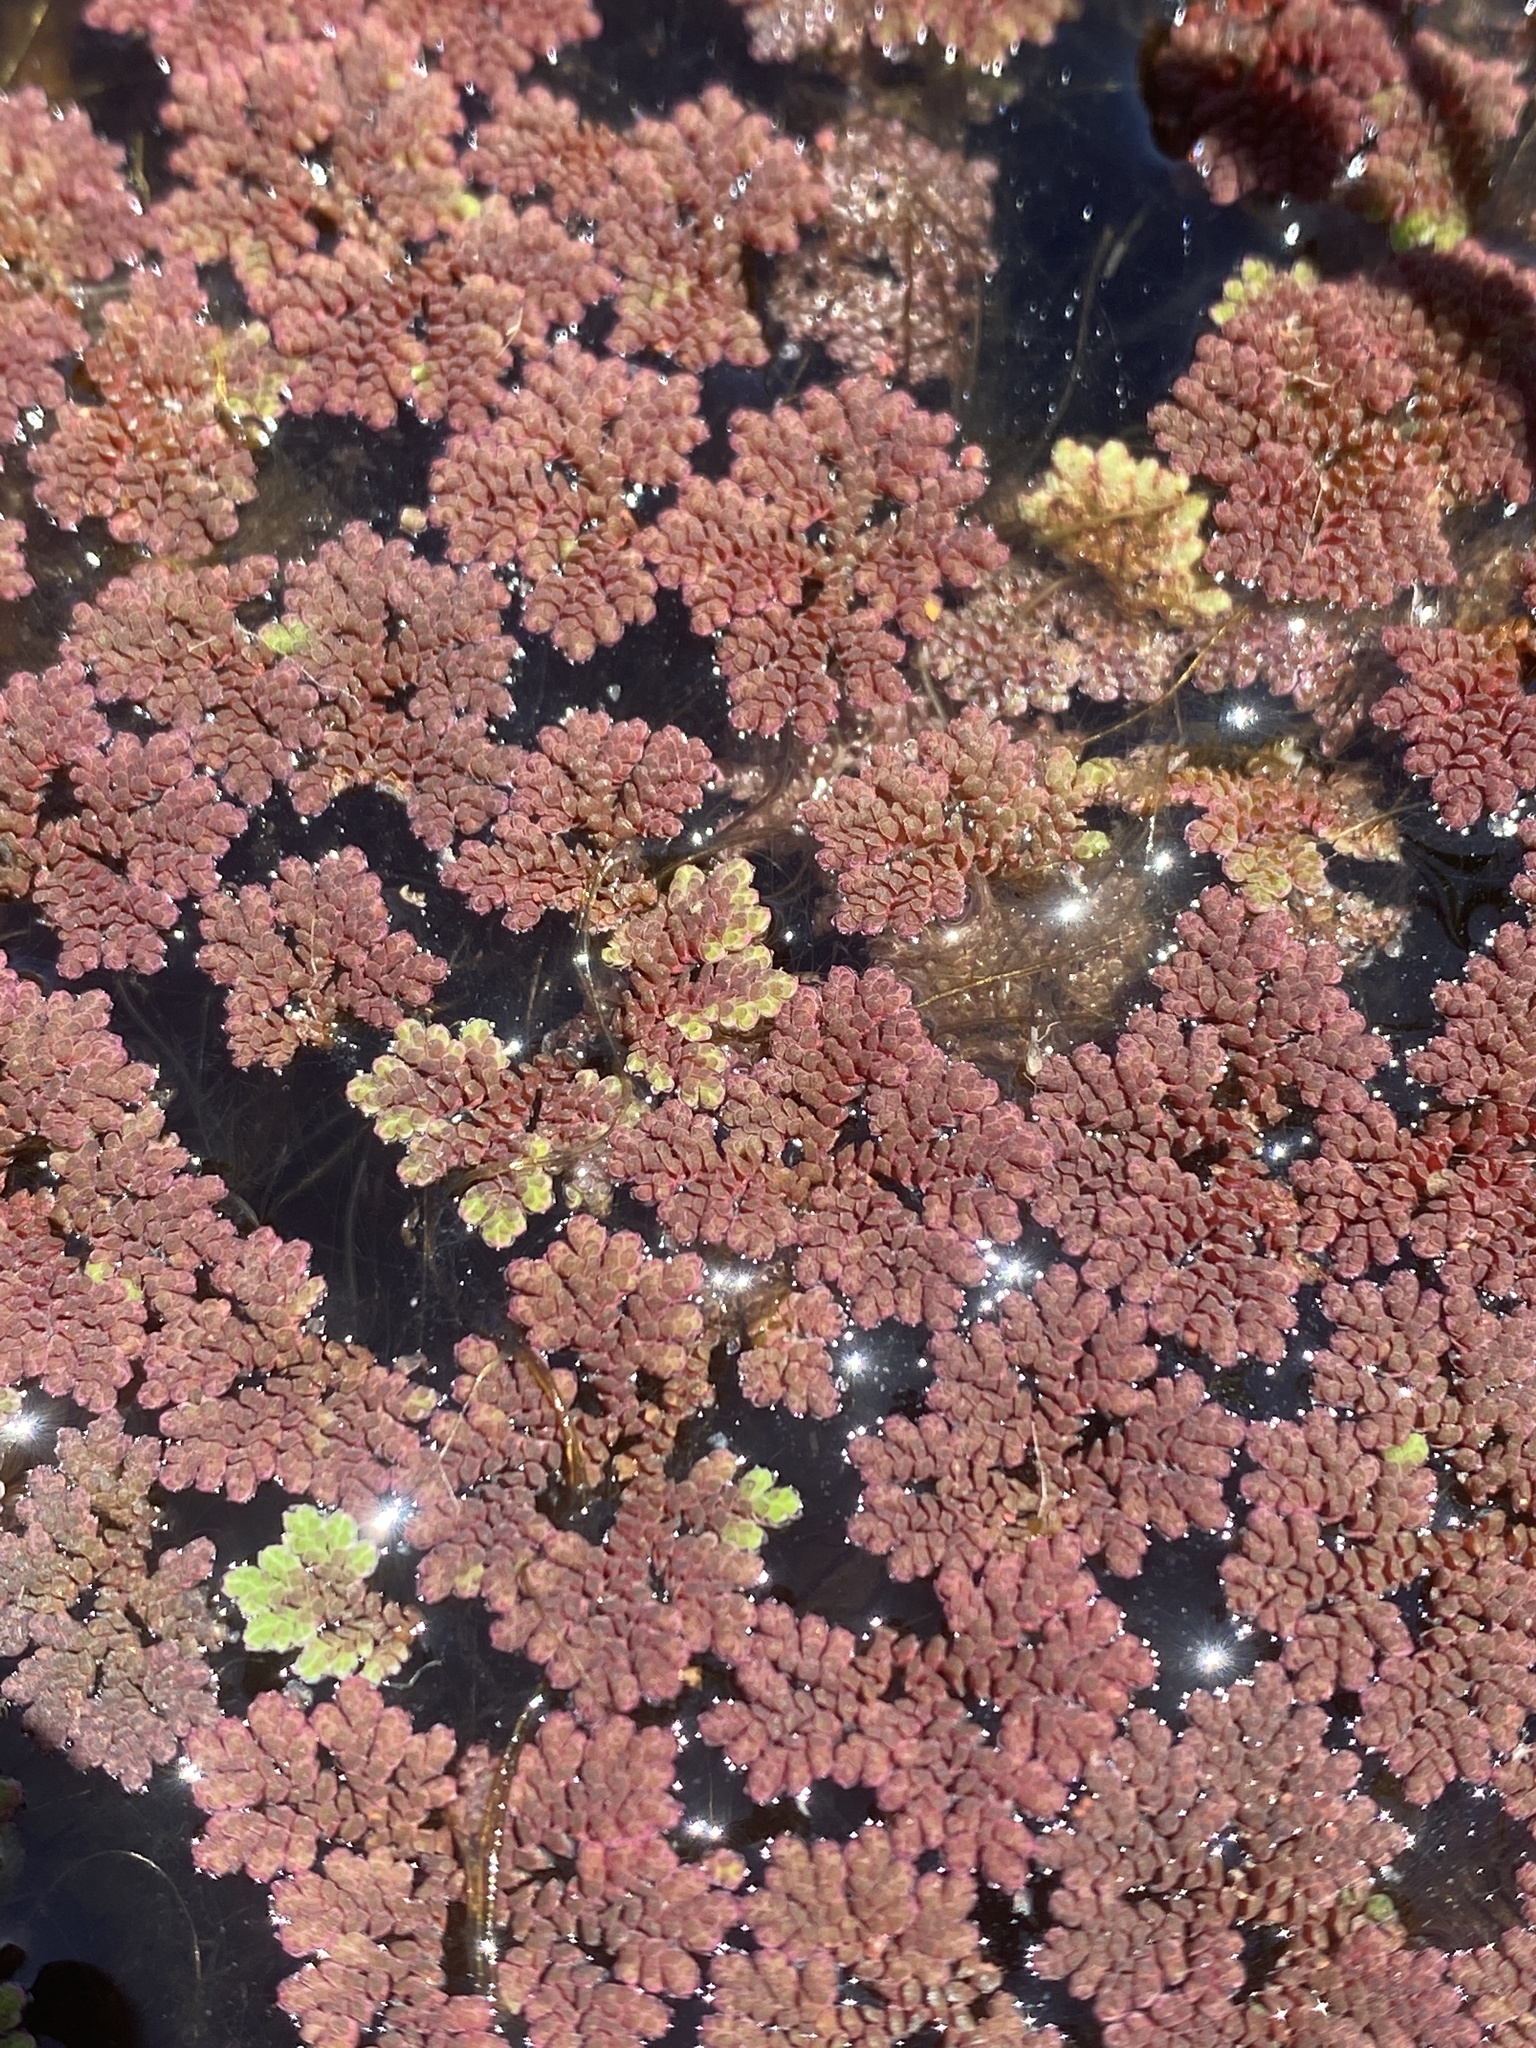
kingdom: Plantae
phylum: Tracheophyta
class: Polypodiopsida
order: Salviniales
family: Salviniaceae
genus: Azolla
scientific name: Azolla filiculoides
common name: Water fern
